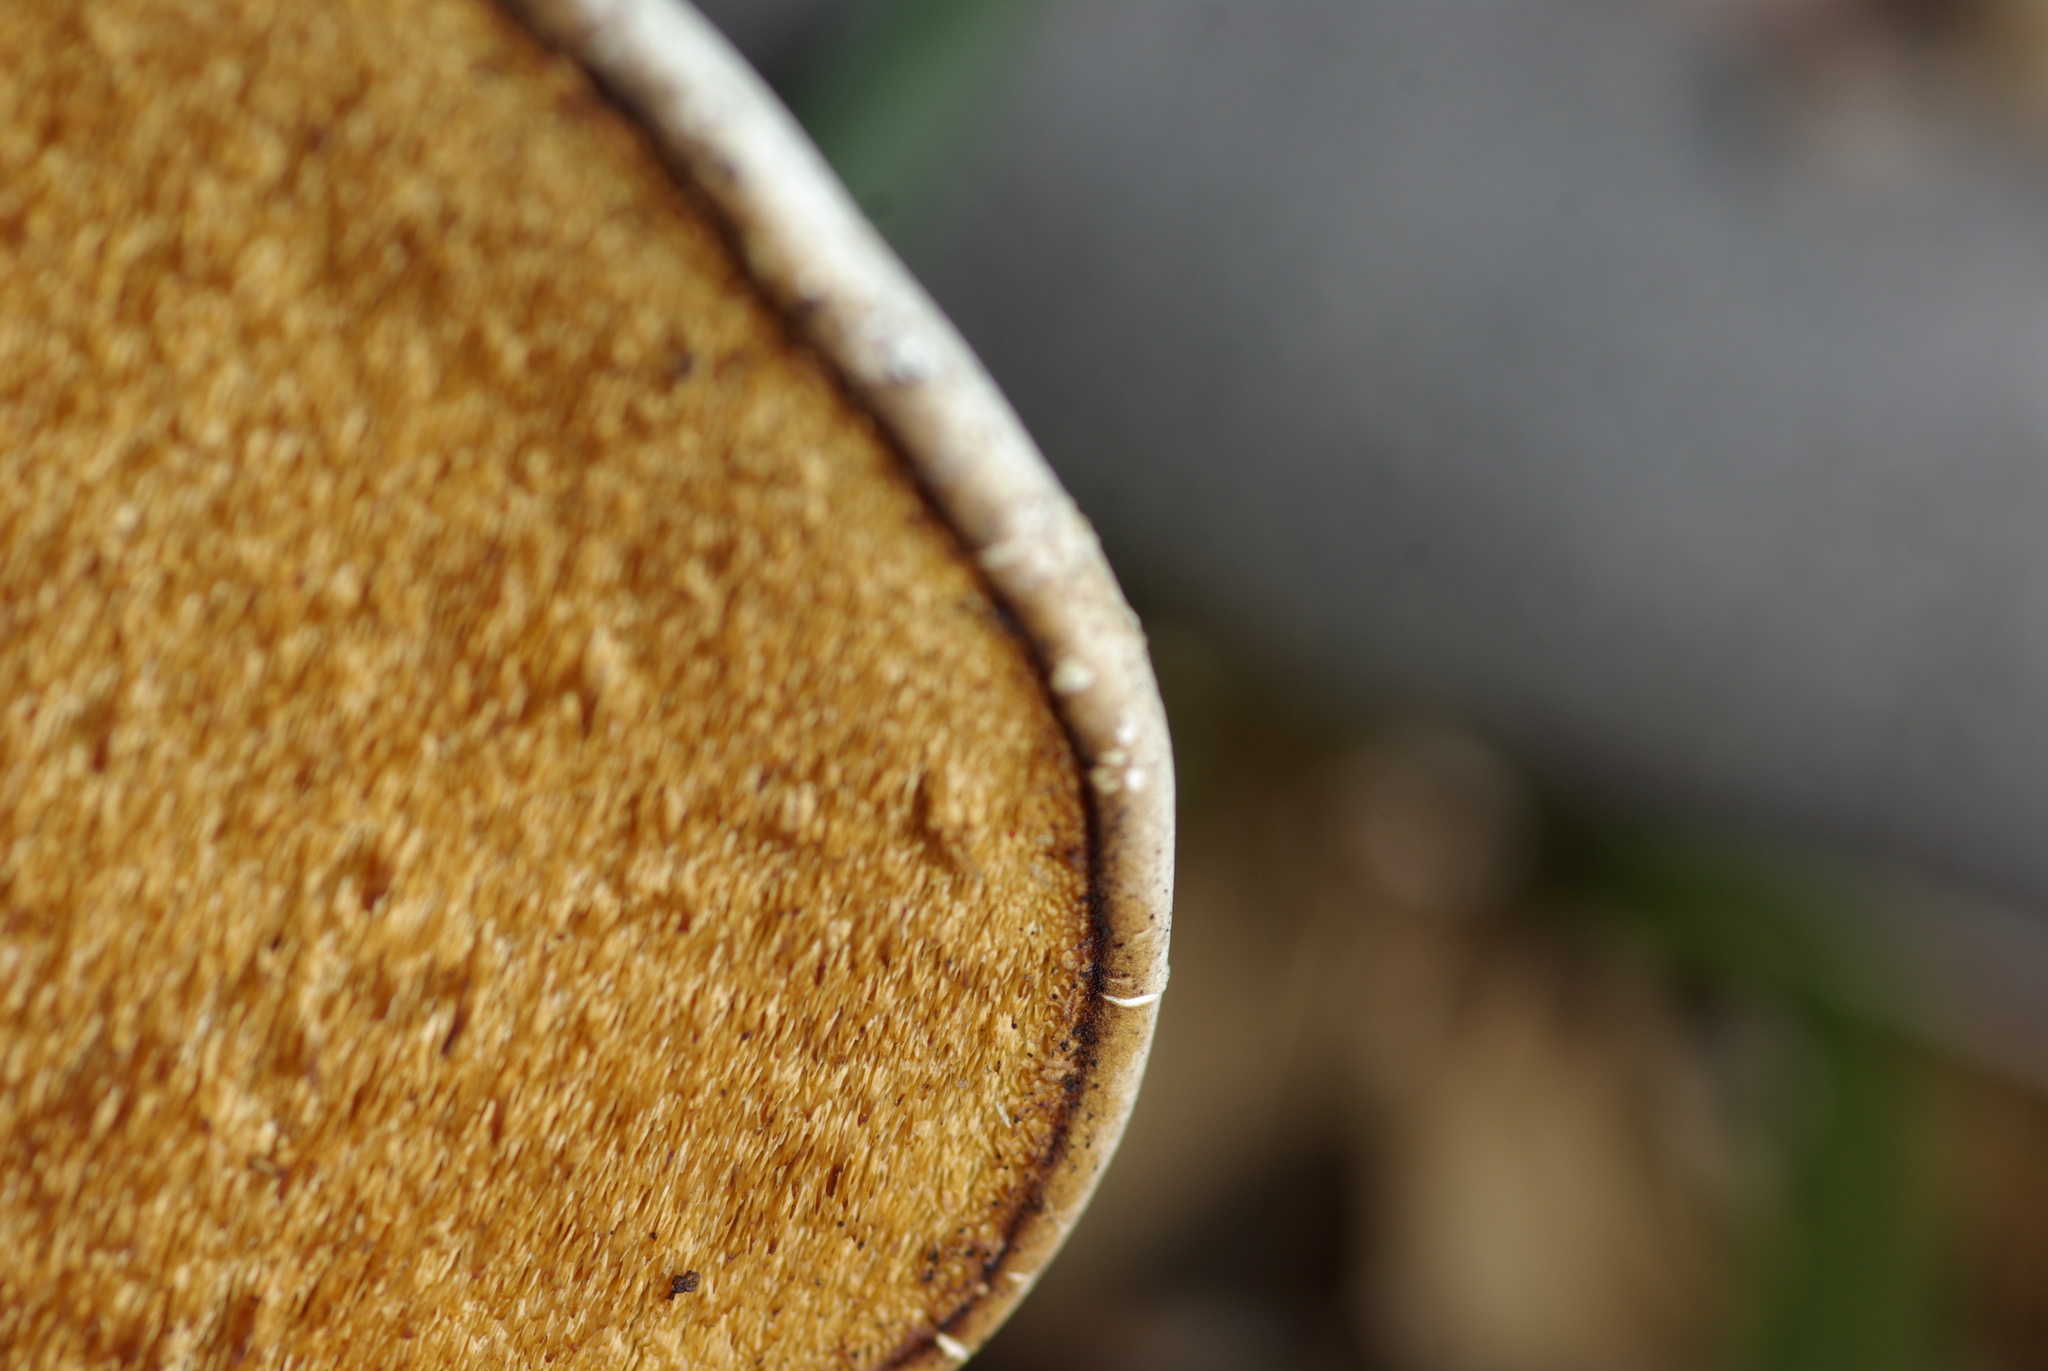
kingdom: Fungi
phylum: Basidiomycota
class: Agaricomycetes
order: Polyporales
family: Fomitopsidaceae
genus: Fomitopsis
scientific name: Fomitopsis betulina
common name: Birch polypore
